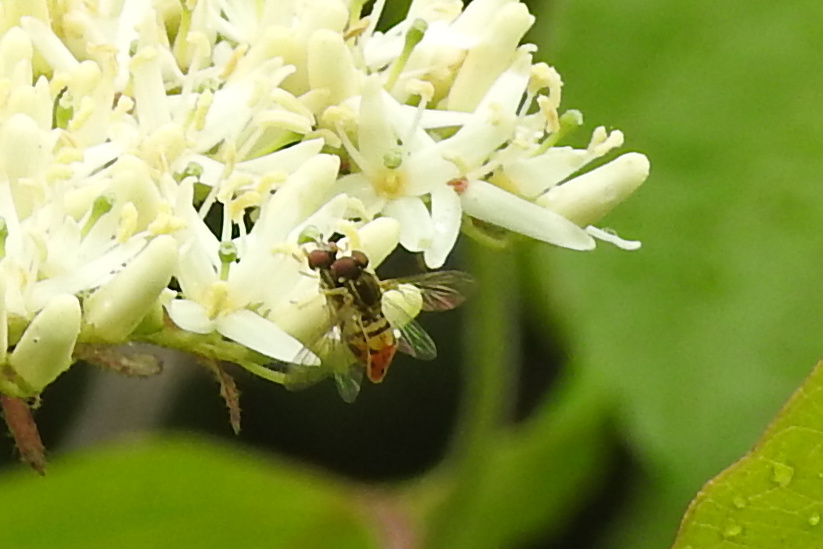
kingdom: Animalia
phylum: Arthropoda
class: Insecta
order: Diptera
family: Syrphidae
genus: Toxomerus
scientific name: Toxomerus marginatus
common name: Syrphid fly
